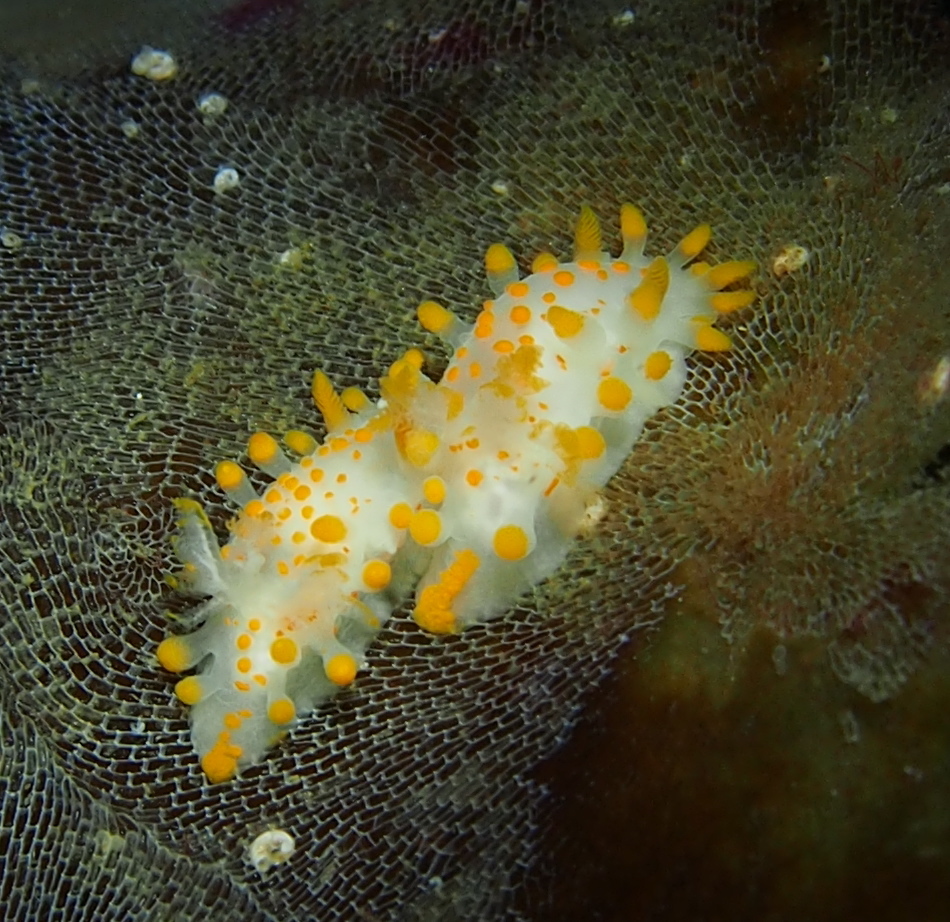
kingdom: Animalia
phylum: Mollusca
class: Gastropoda
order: Nudibranchia
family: Polyceridae
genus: Limacia
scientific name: Limacia clavigera
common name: Orange-clubbed sea slug
